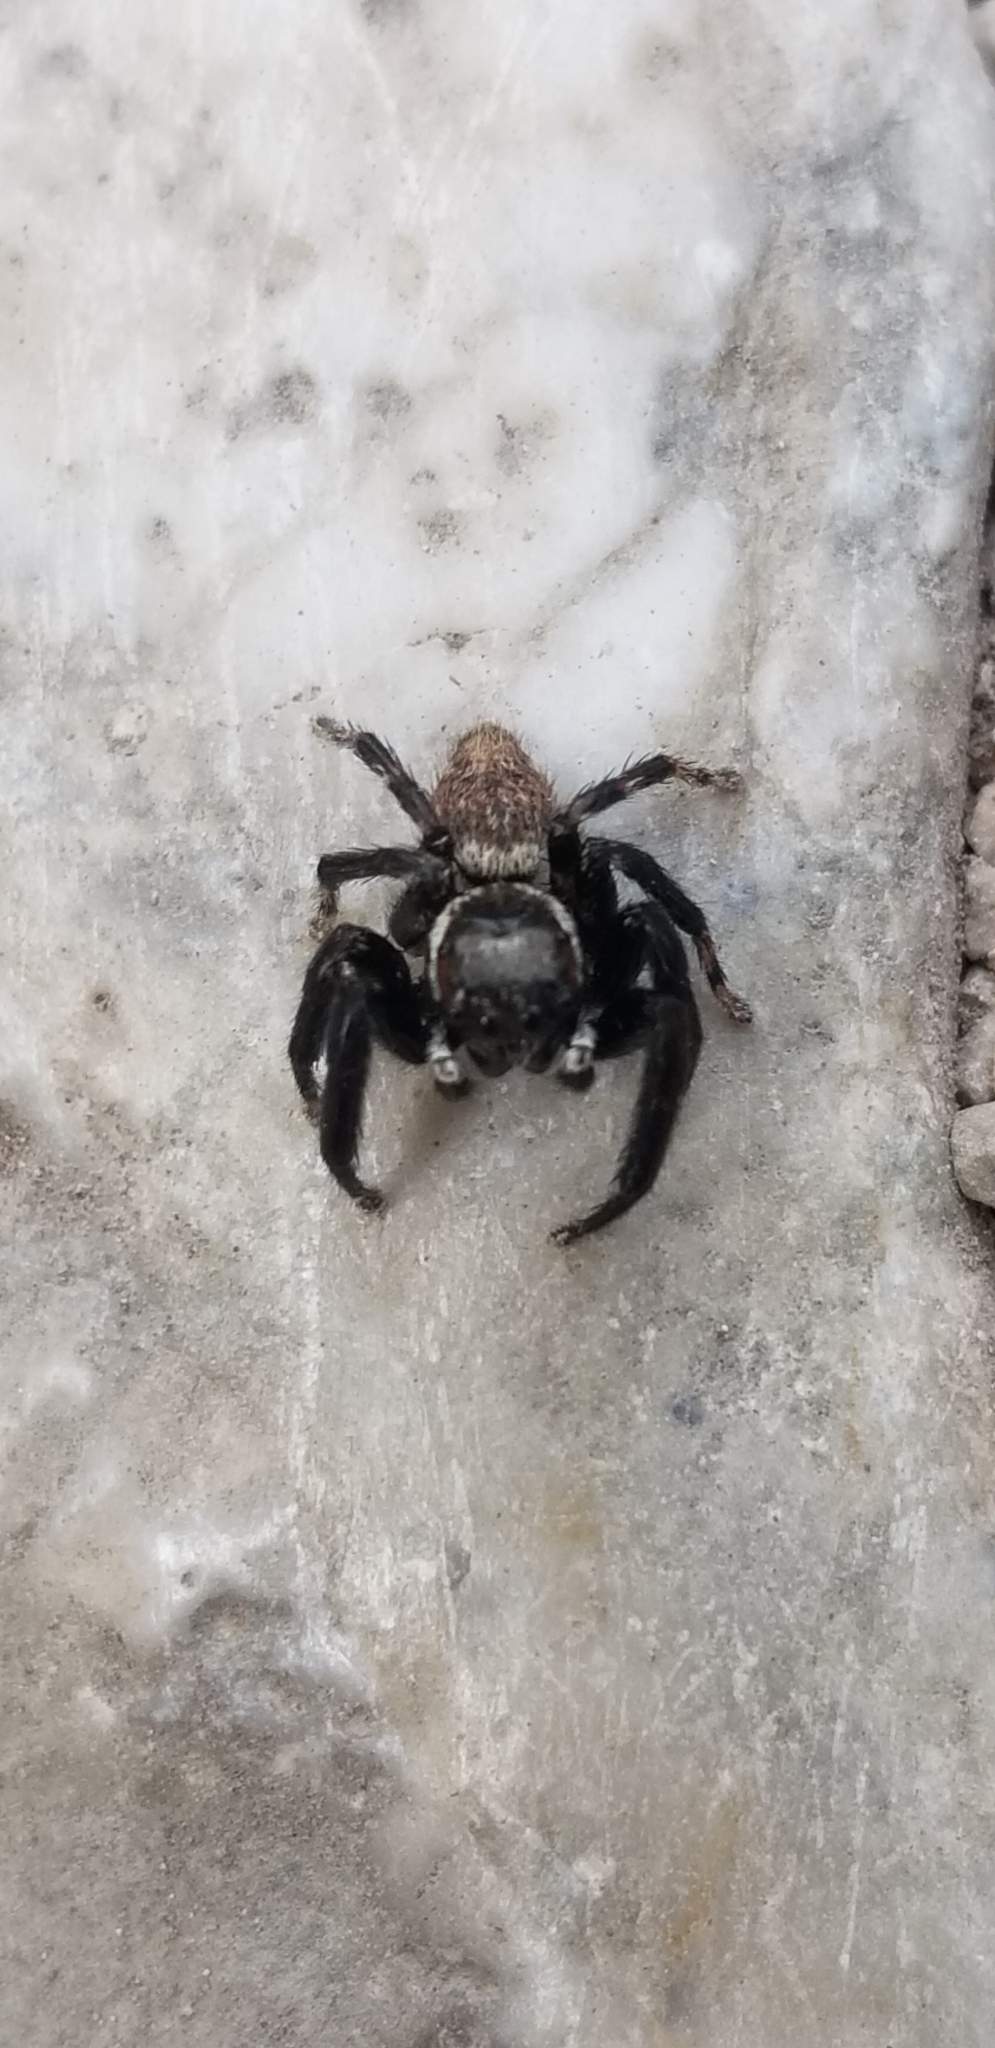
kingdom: Animalia
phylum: Arthropoda
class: Arachnida
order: Araneae
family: Salticidae
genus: Evarcha
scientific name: Evarcha jucunda
